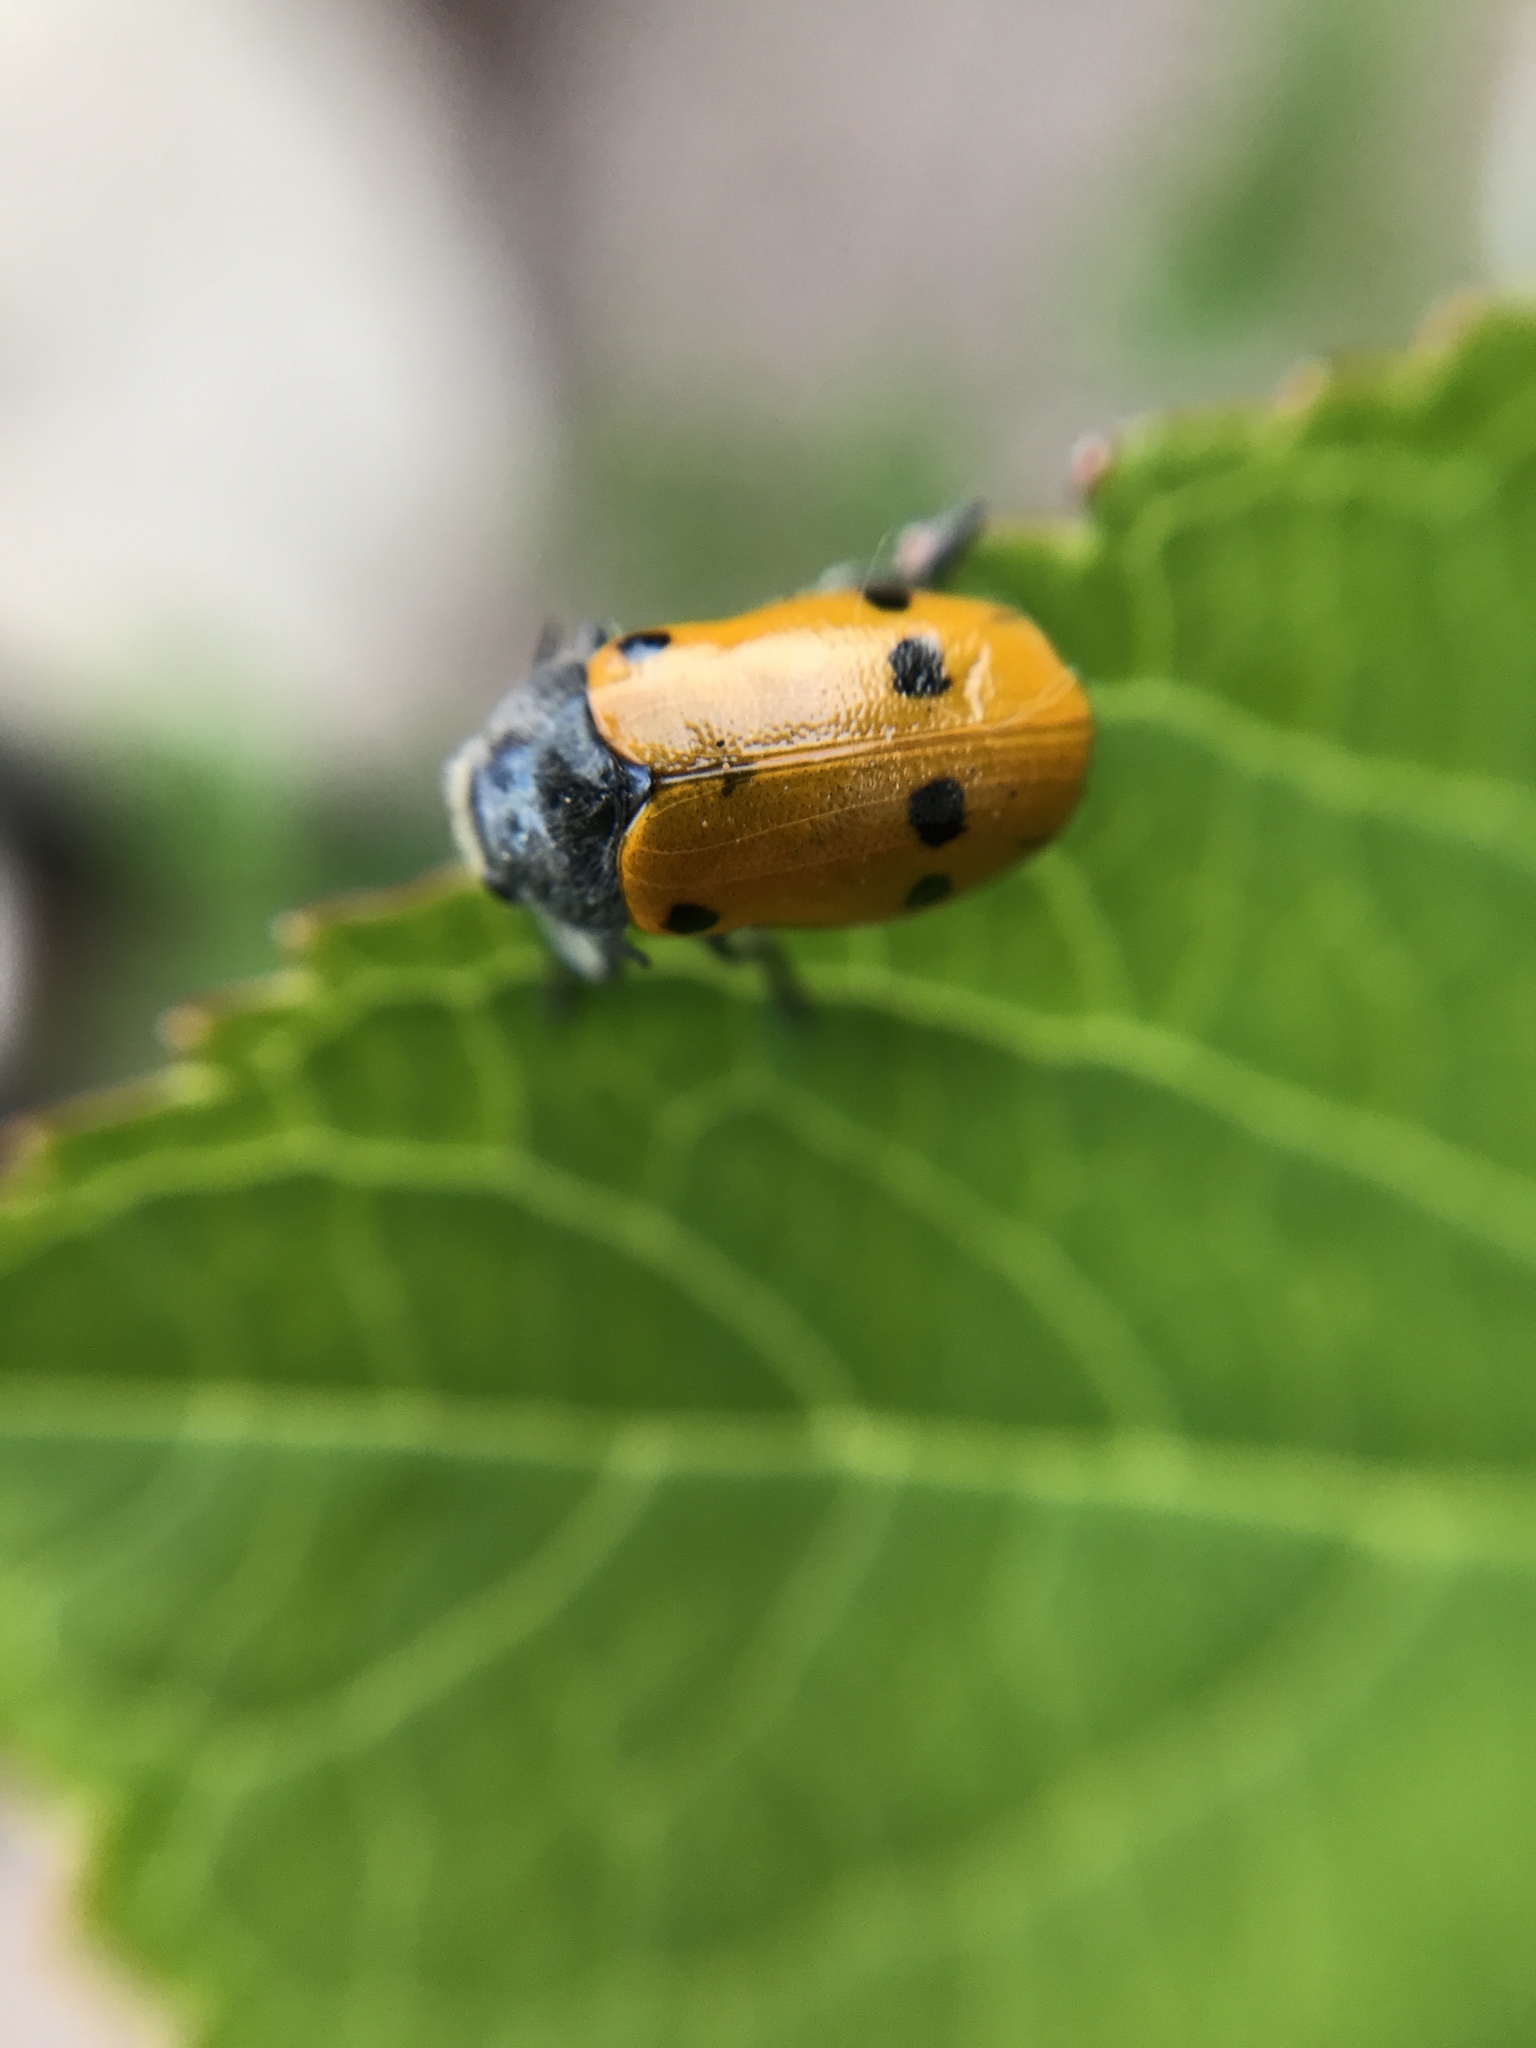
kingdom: Animalia
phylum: Arthropoda
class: Insecta
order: Coleoptera
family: Chrysomelidae
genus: Lachnaia
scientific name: Lachnaia italica
